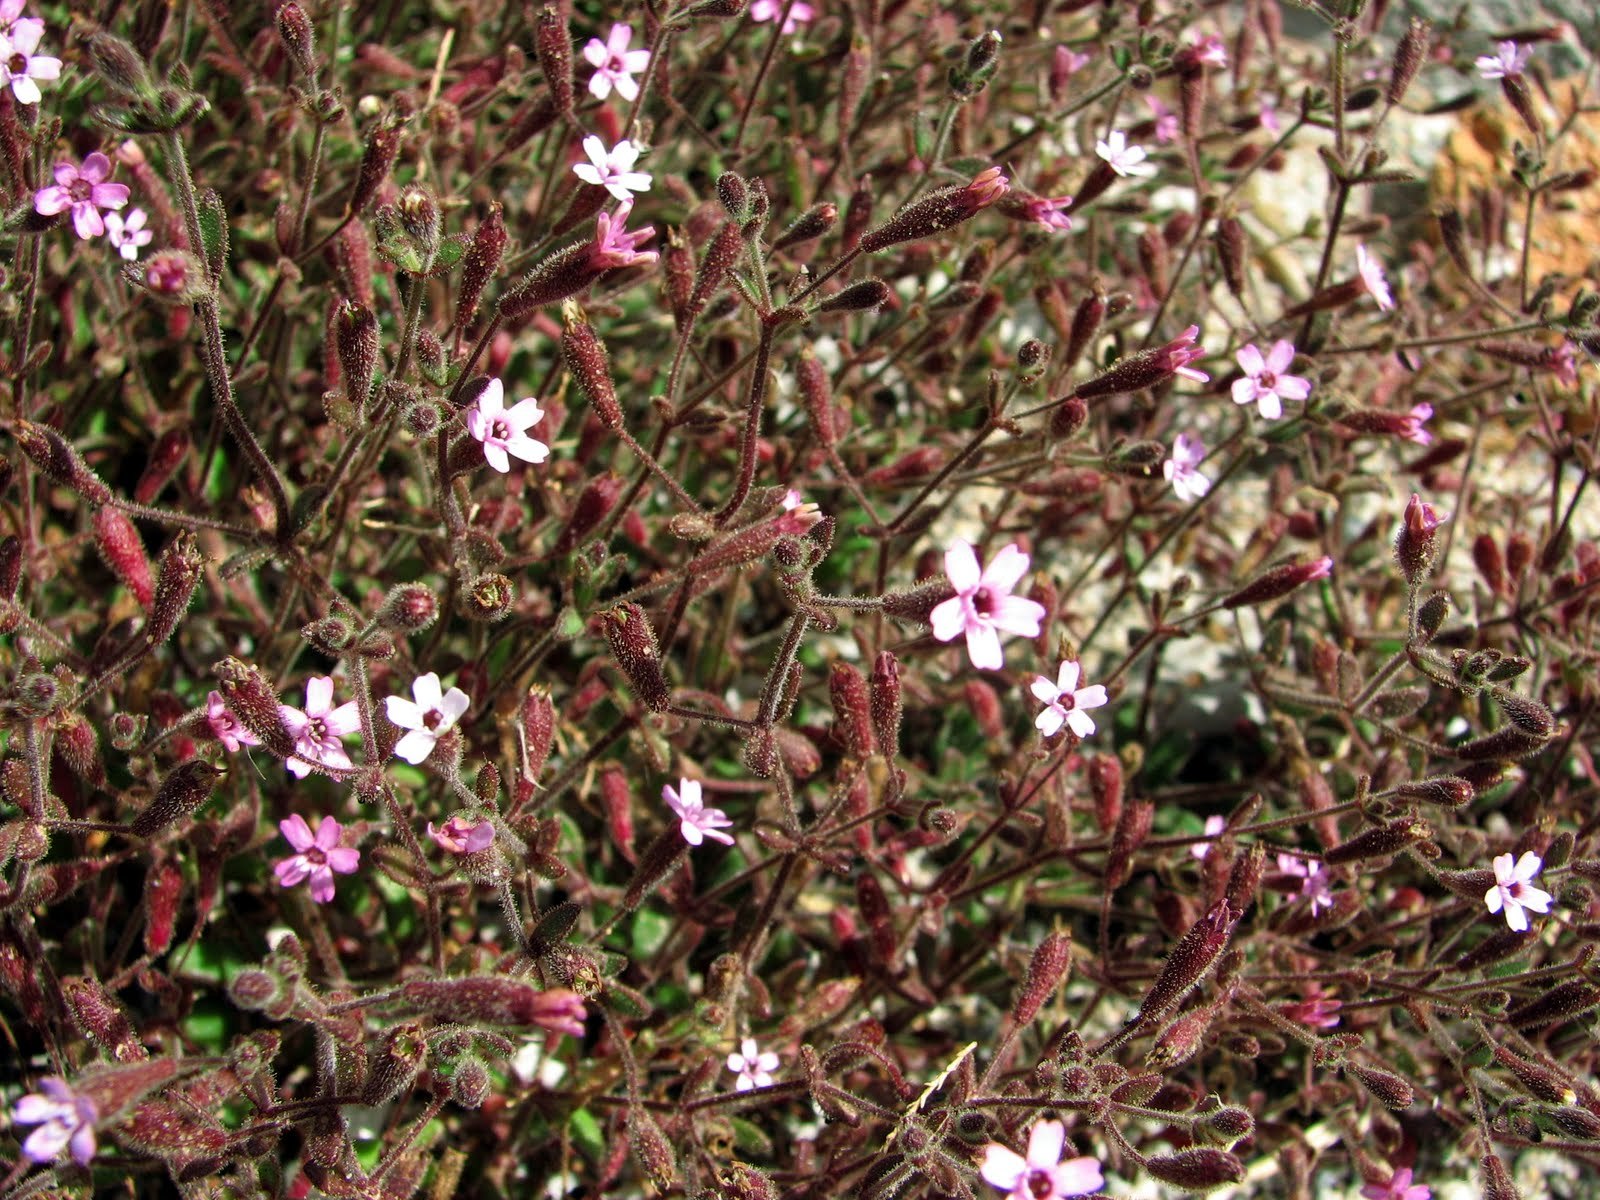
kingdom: Plantae
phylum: Tracheophyta
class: Magnoliopsida
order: Caryophyllales
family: Caryophyllaceae
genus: Silene
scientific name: Silene sedoides
